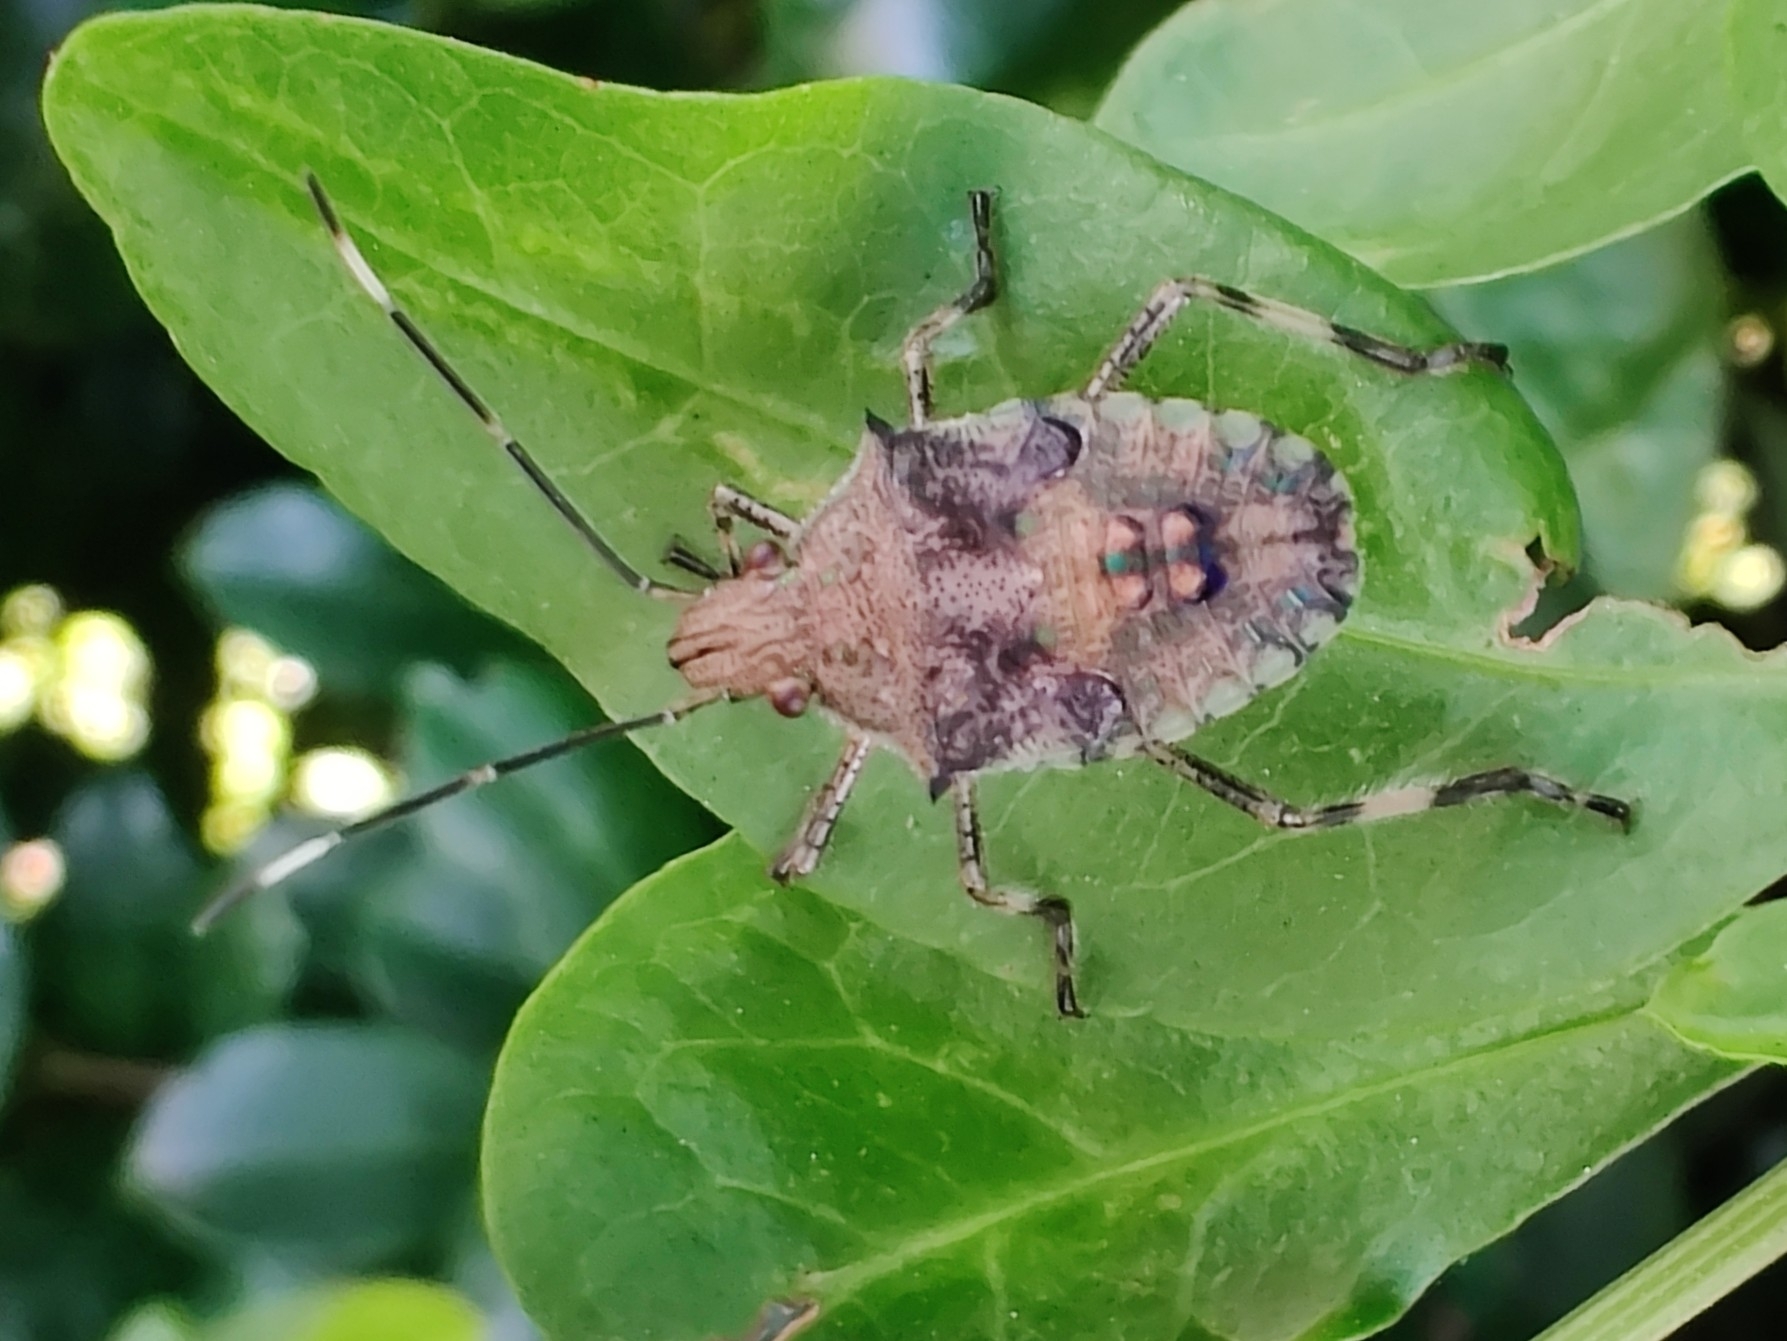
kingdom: Animalia
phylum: Arthropoda
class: Insecta
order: Hemiptera
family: Pentatomidae
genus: Bromocoris
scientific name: Bromocoris
